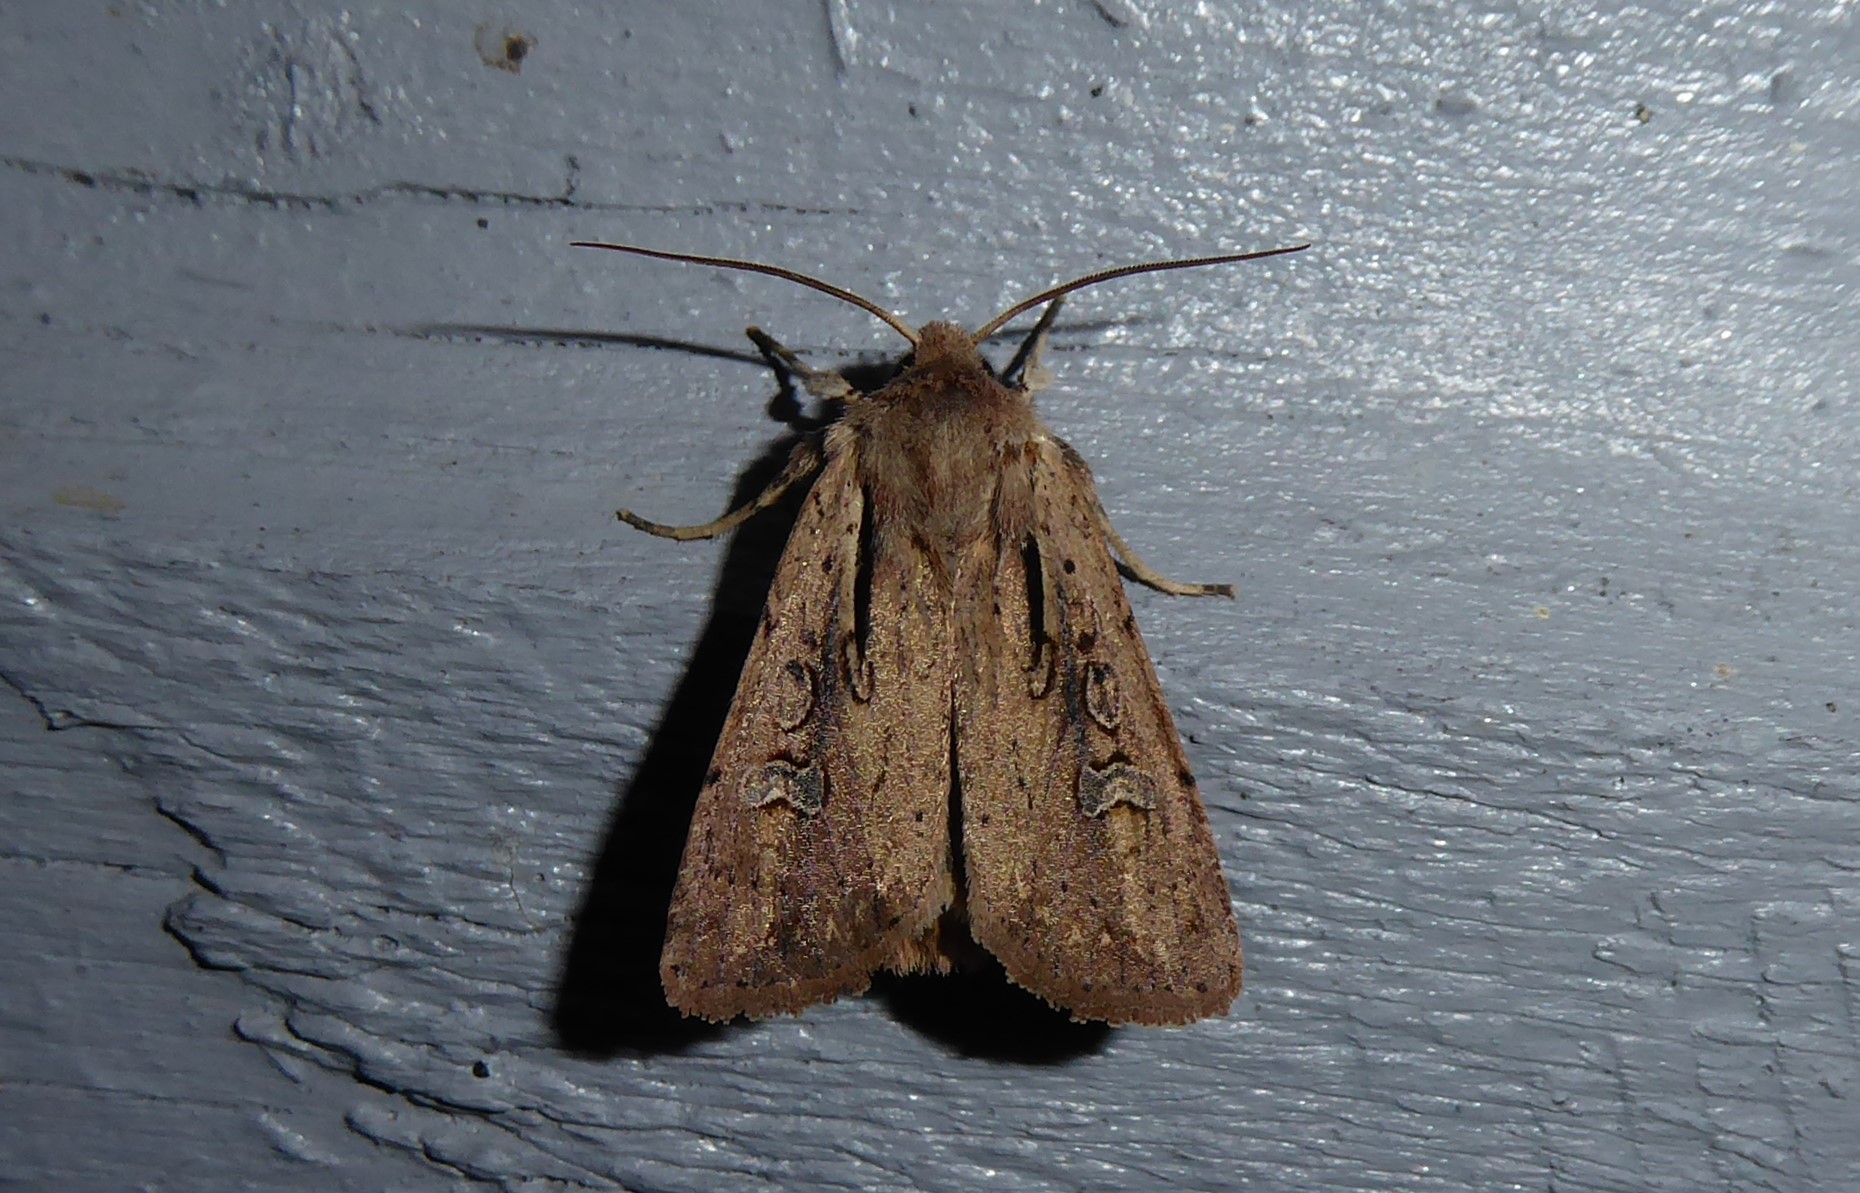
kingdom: Animalia
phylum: Arthropoda
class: Insecta
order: Lepidoptera
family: Noctuidae
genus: Ichneutica
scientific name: Ichneutica atristriga
